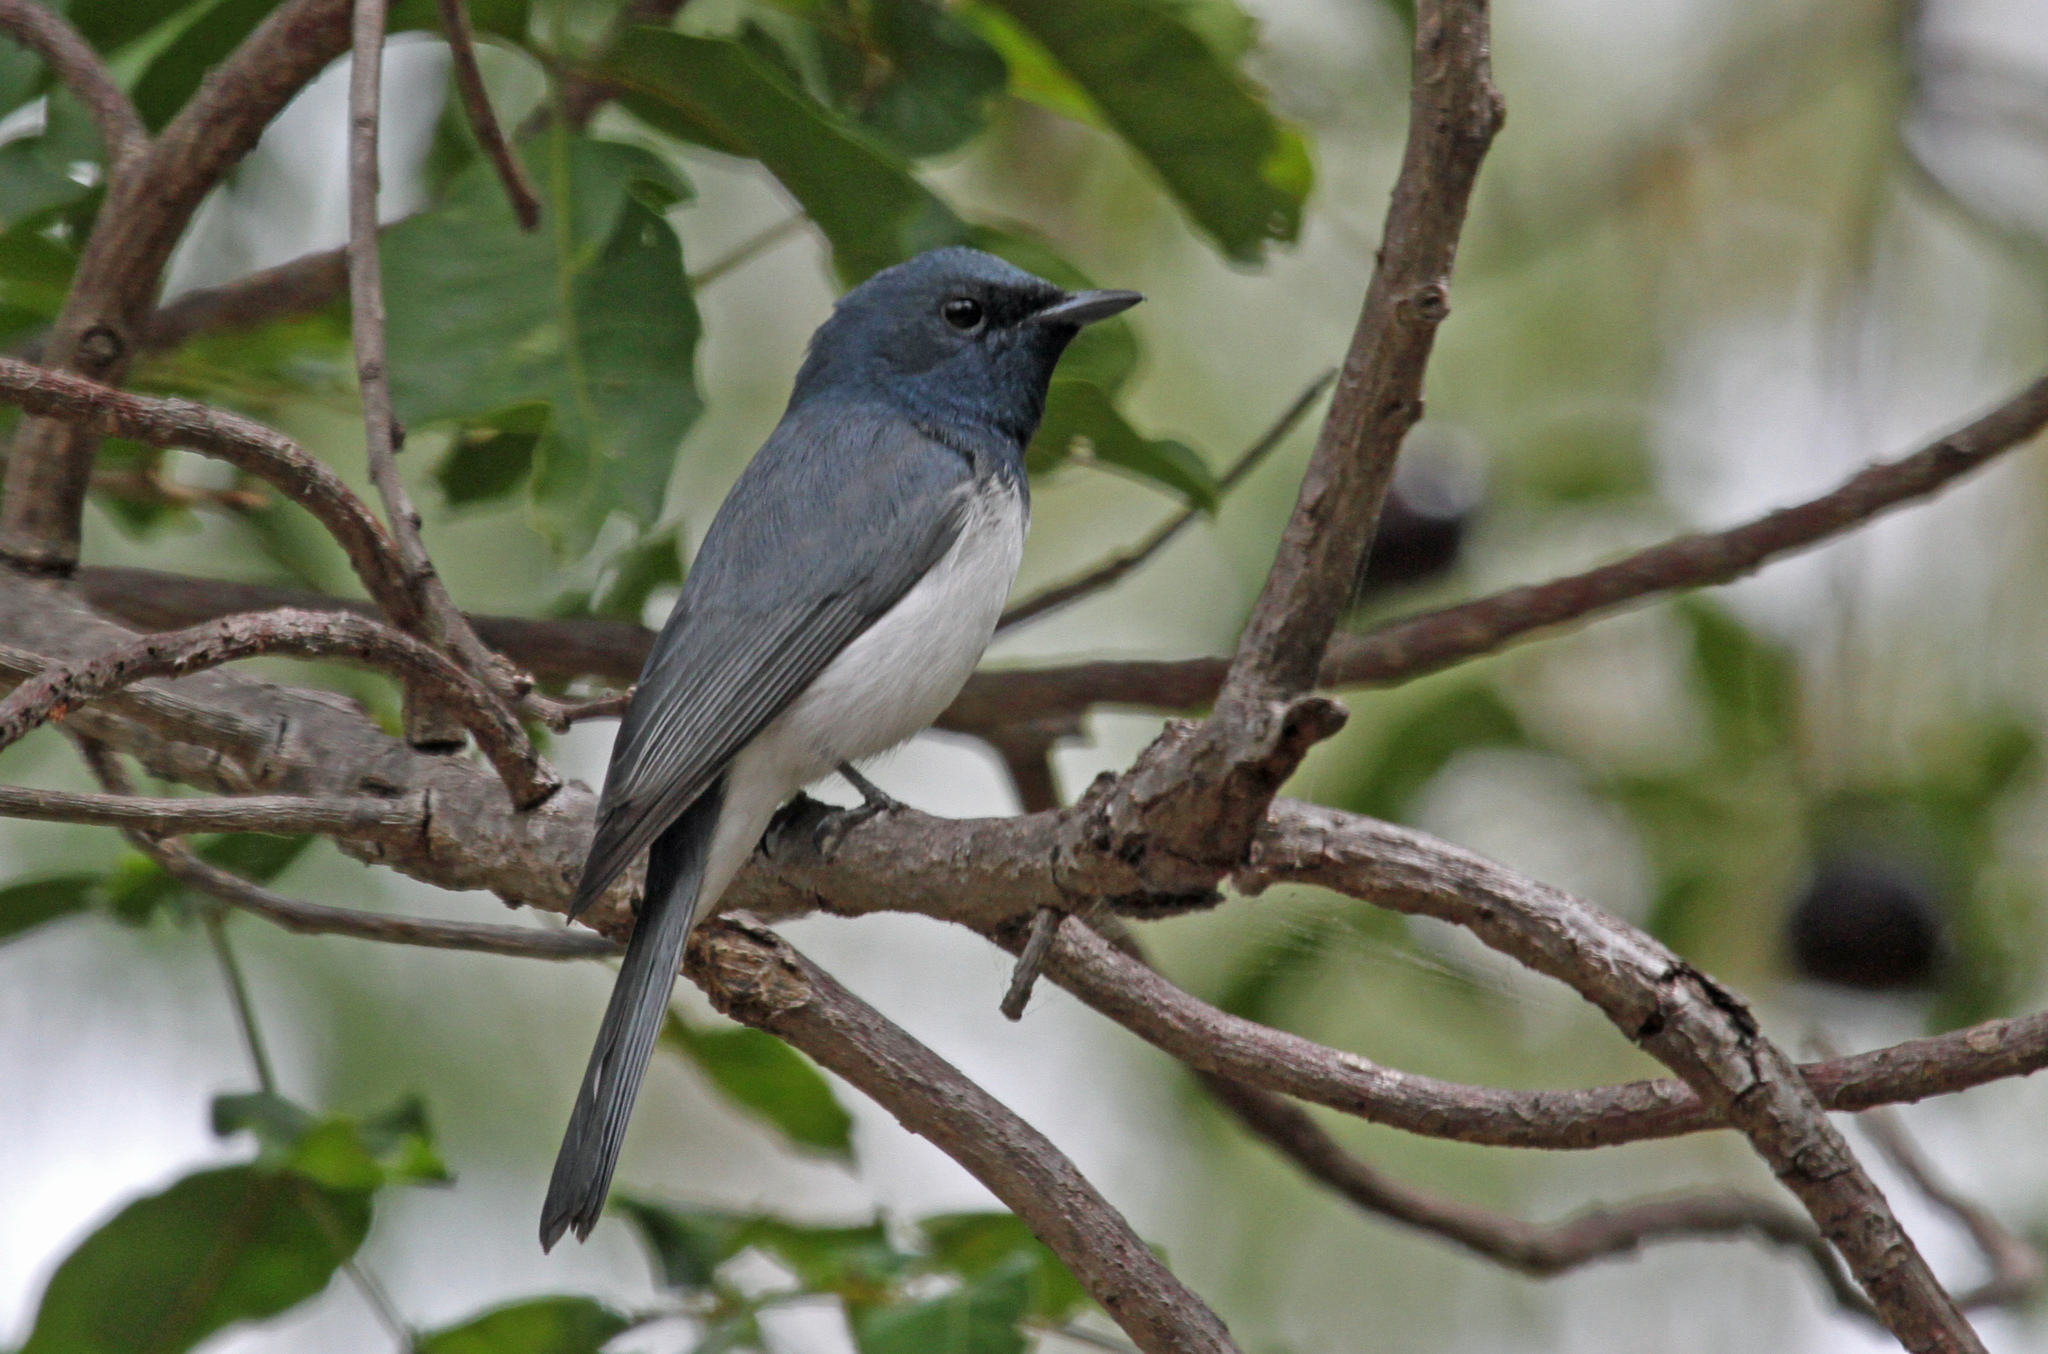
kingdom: Animalia
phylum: Chordata
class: Aves
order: Passeriformes
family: Monarchidae
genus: Myiagra
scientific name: Myiagra rubecula
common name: Leaden flycatcher
